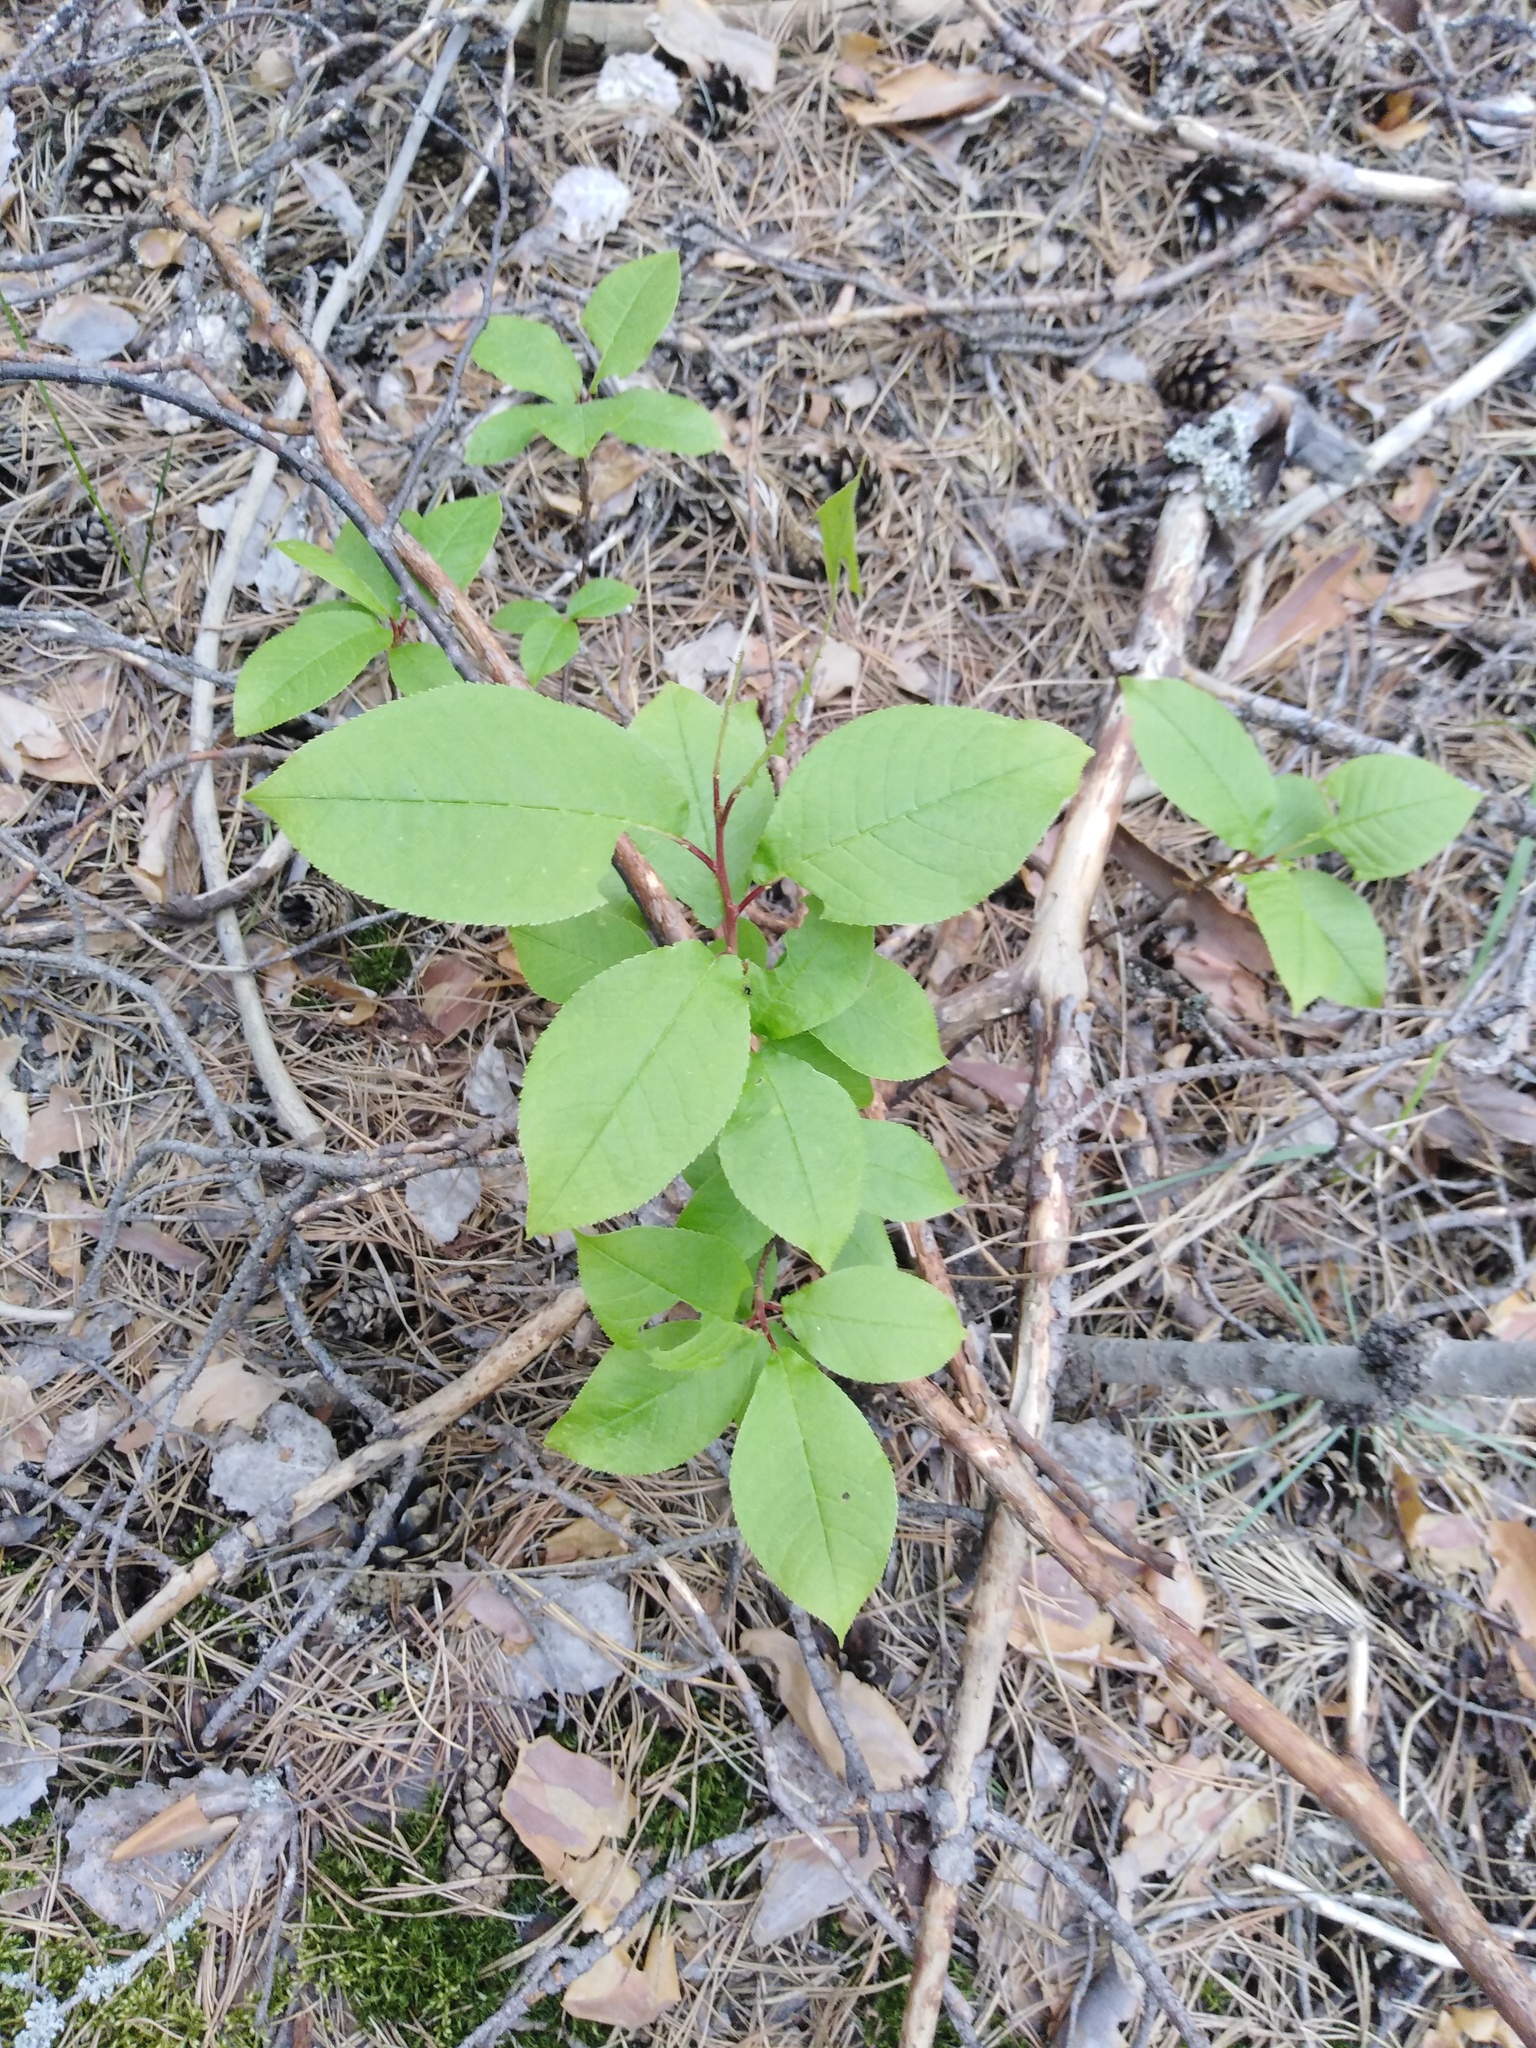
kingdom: Plantae
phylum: Tracheophyta
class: Magnoliopsida
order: Rosales
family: Rosaceae
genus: Prunus
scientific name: Prunus padus
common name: Bird cherry
